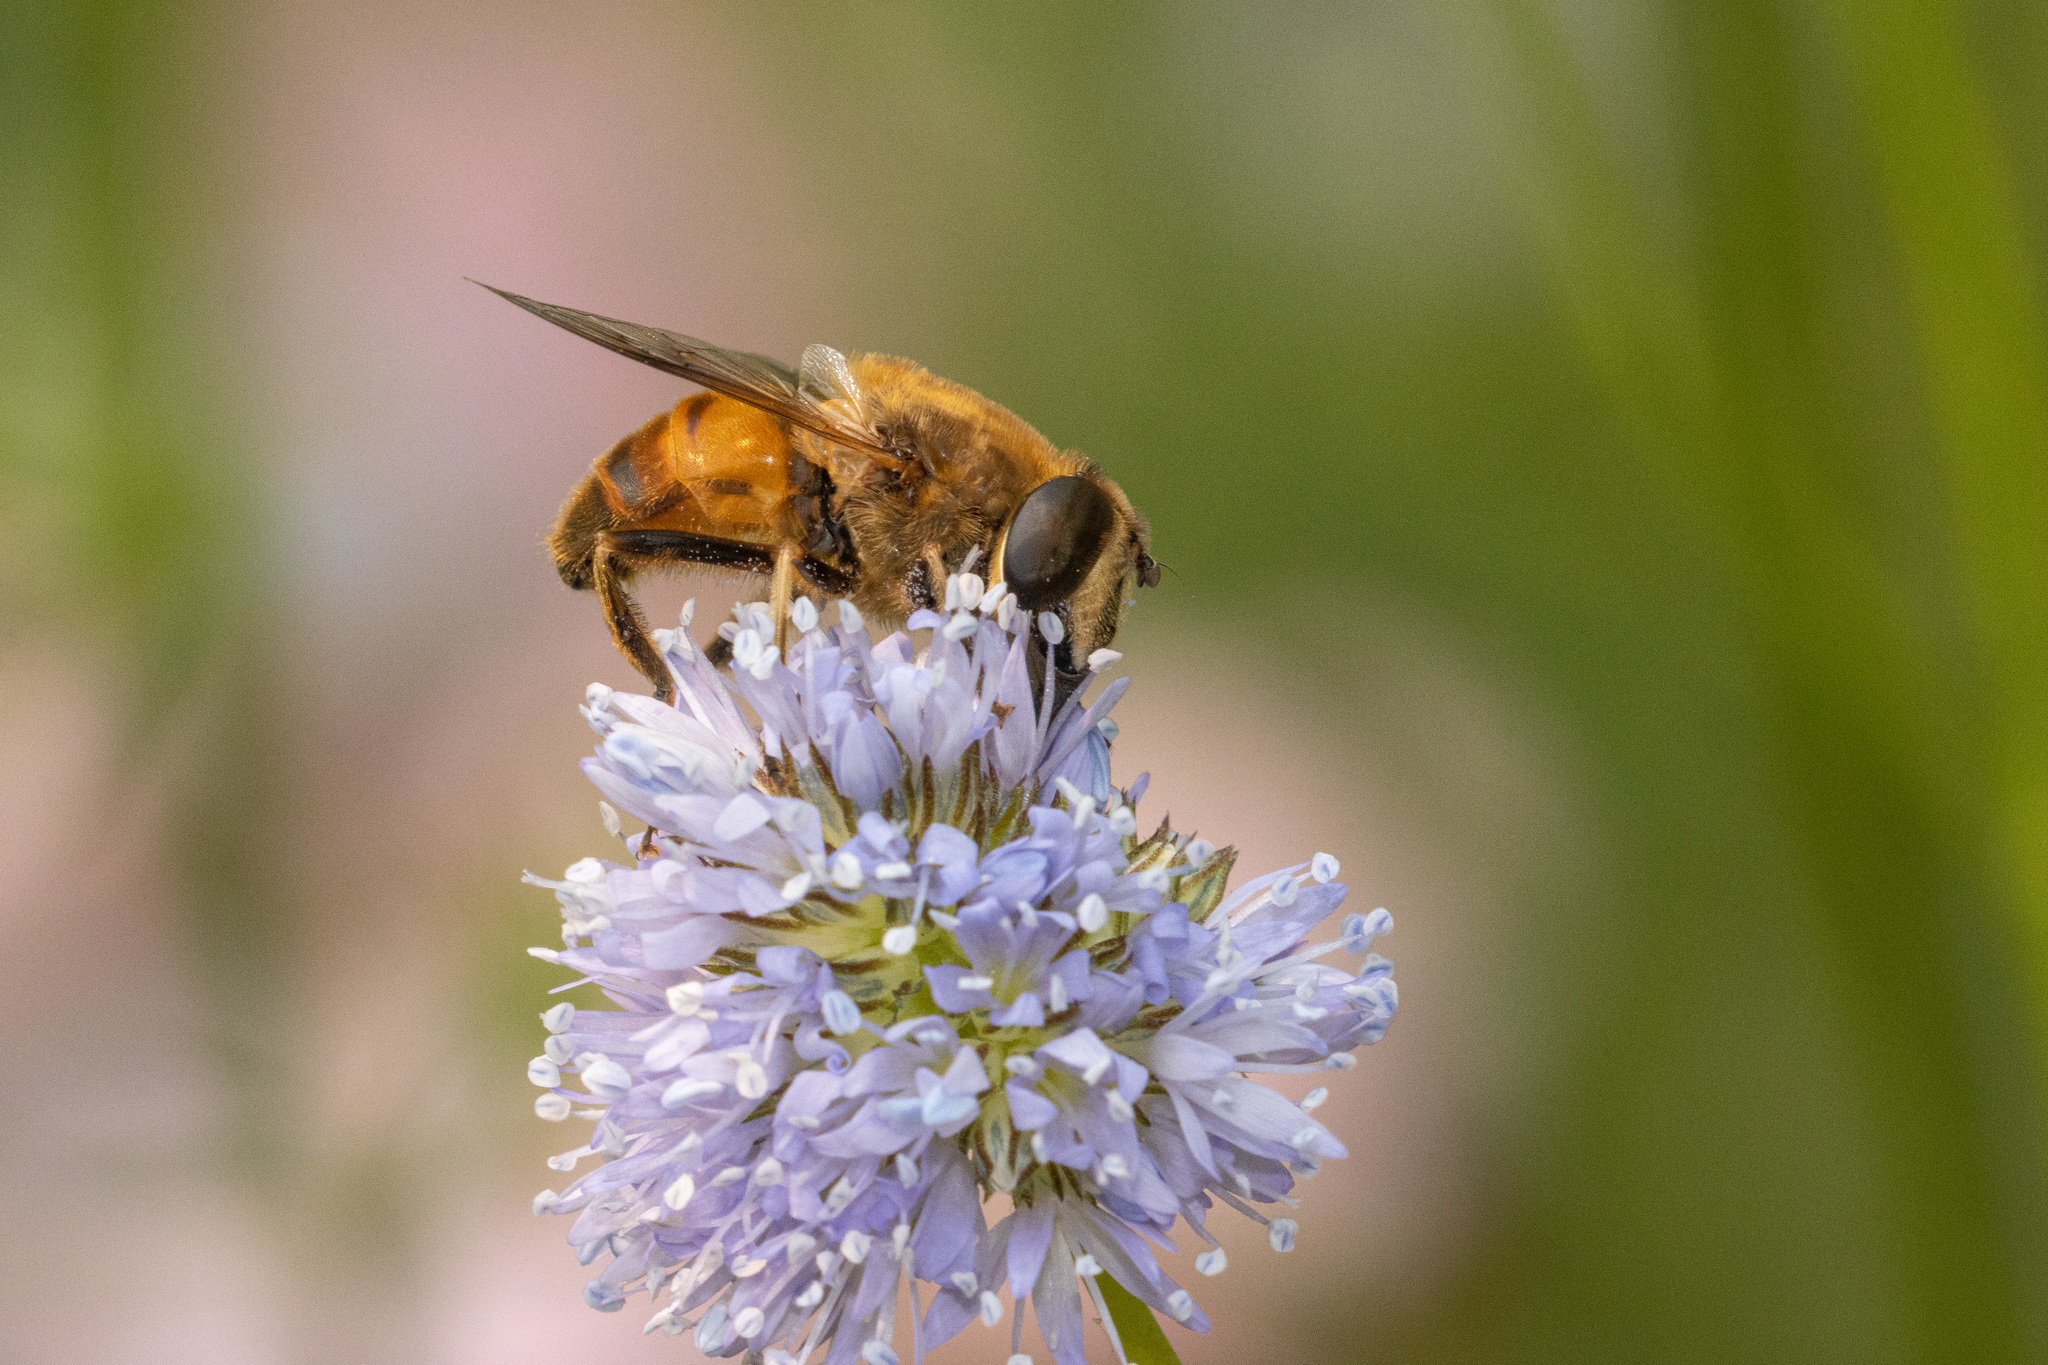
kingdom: Animalia
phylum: Arthropoda
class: Insecta
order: Diptera
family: Syrphidae
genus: Eristalis
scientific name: Eristalis tenax
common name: Drone fly
